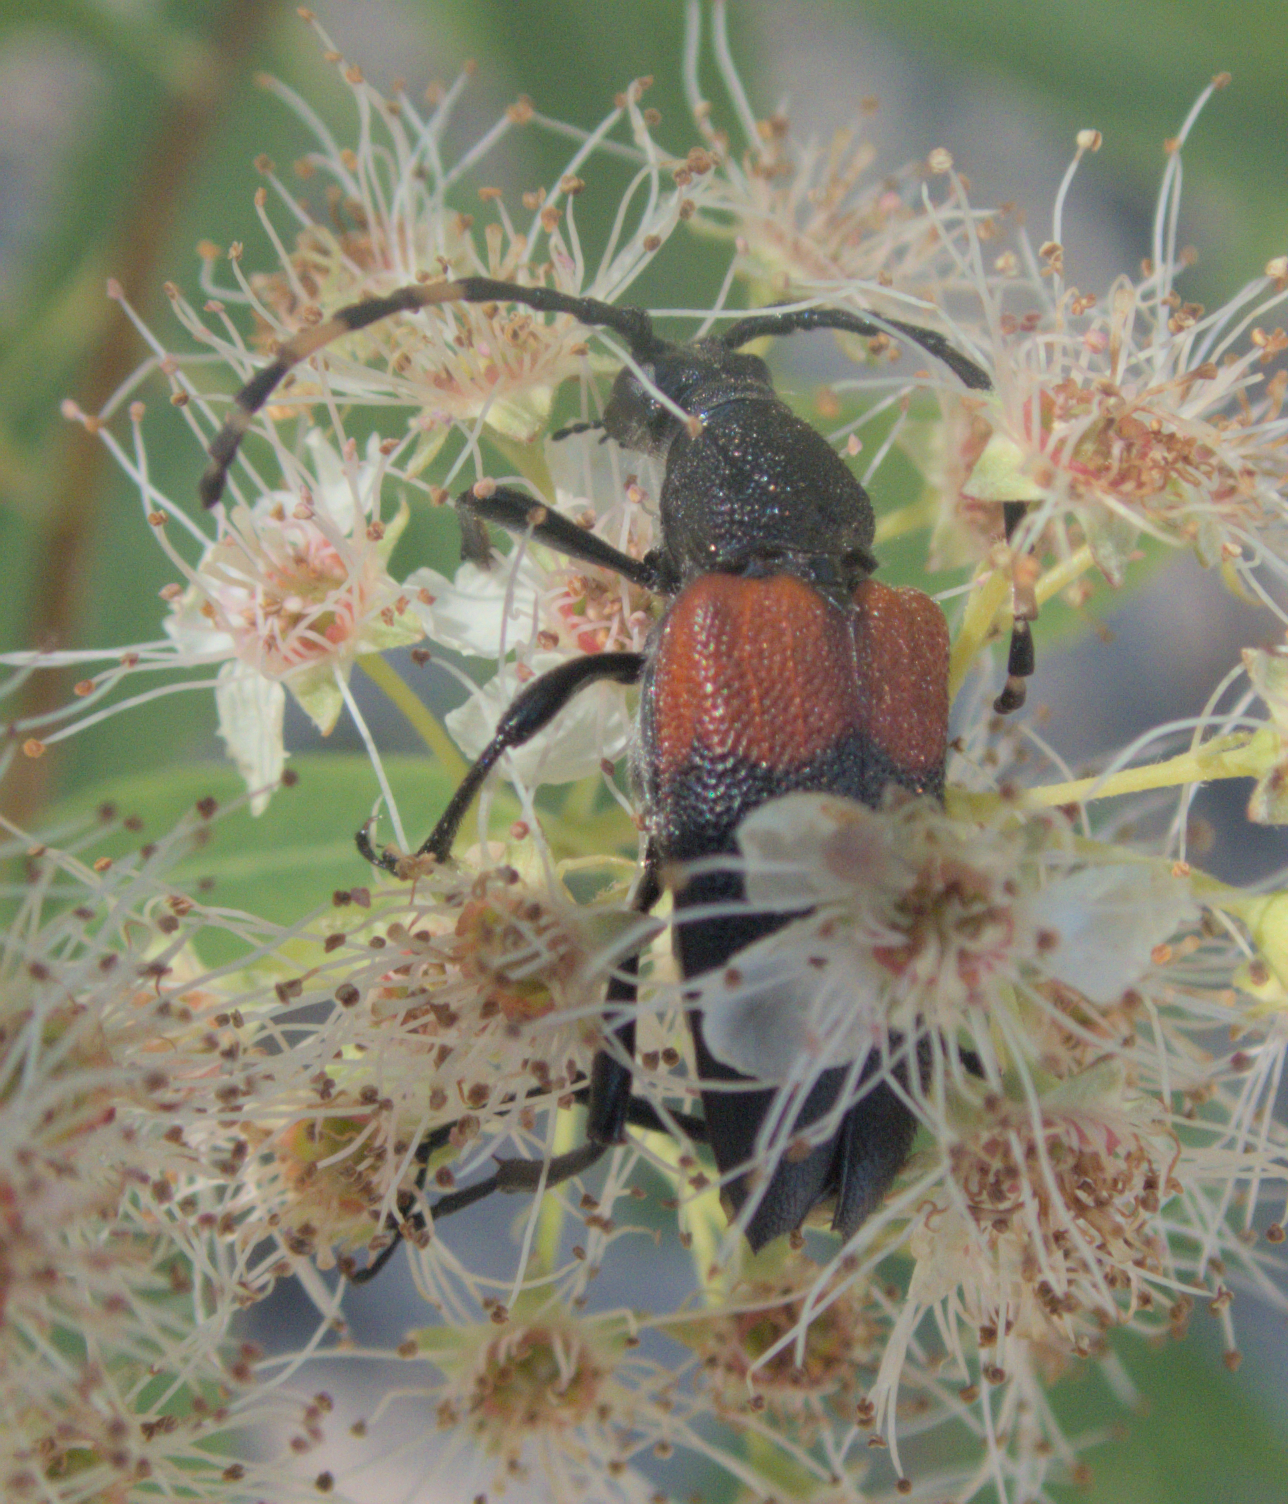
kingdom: Animalia
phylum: Arthropoda
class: Insecta
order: Coleoptera
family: Cerambycidae
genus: Stictoleptura
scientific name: Stictoleptura canadensis
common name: Red-shouldered pine borer
